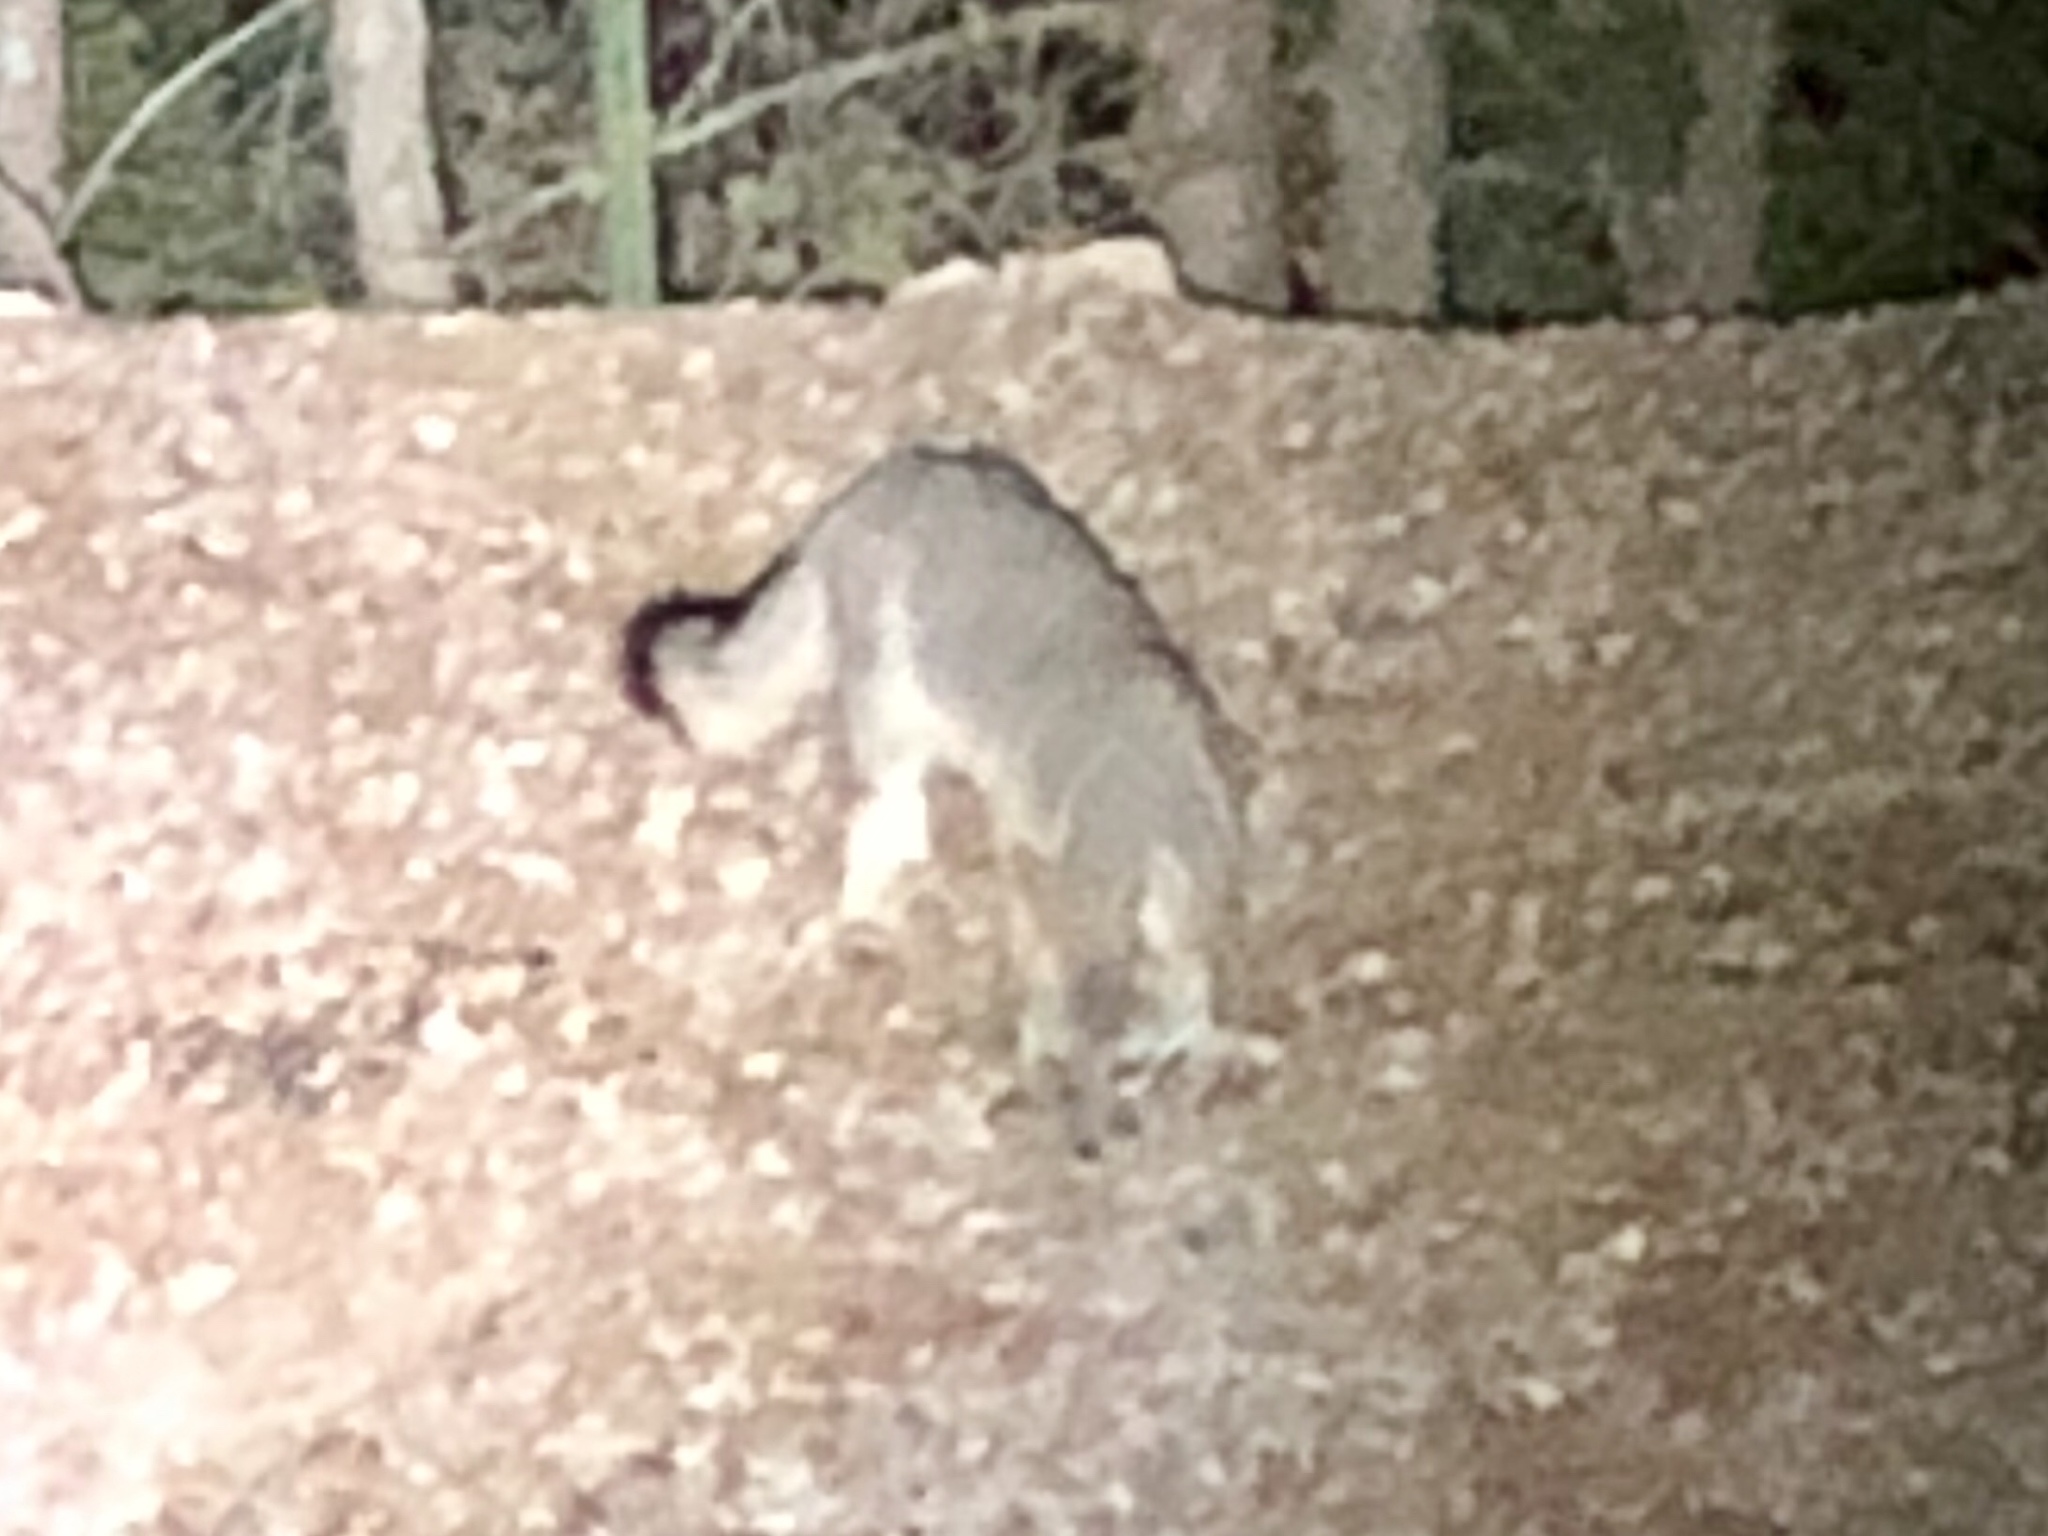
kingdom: Animalia
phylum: Chordata
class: Mammalia
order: Carnivora
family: Canidae
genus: Urocyon
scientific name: Urocyon cinereoargenteus
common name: Gray fox
